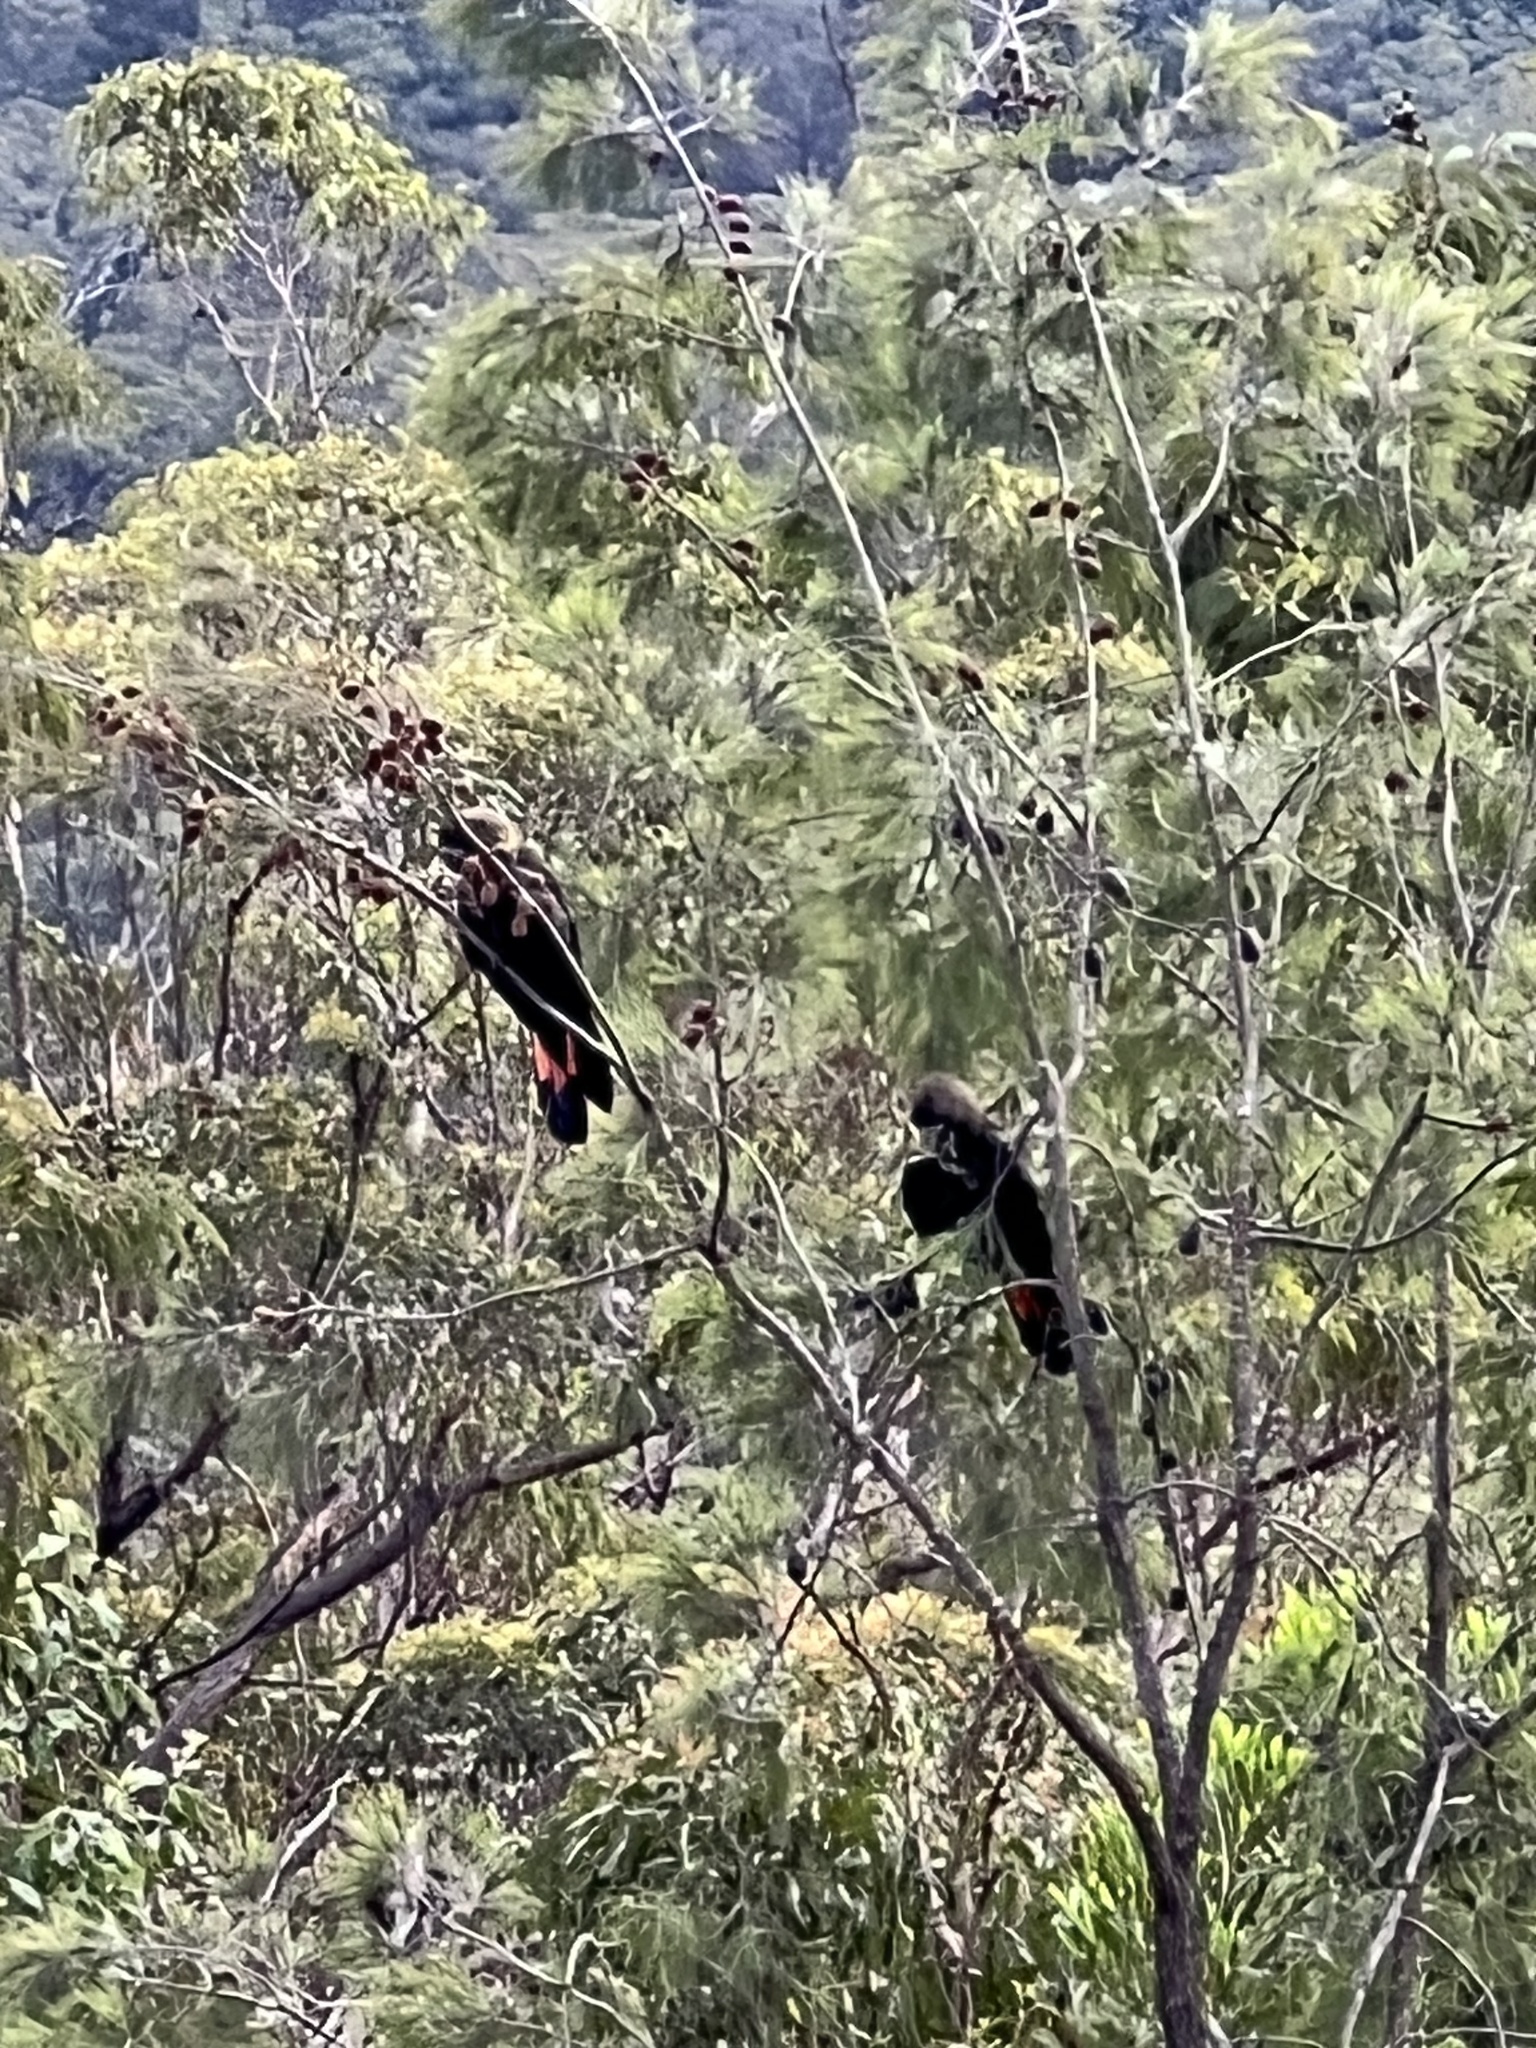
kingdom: Animalia
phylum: Chordata
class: Aves
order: Psittaciformes
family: Psittacidae
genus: Calyptorhynchus
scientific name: Calyptorhynchus lathami
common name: Glossy black cockatoo
